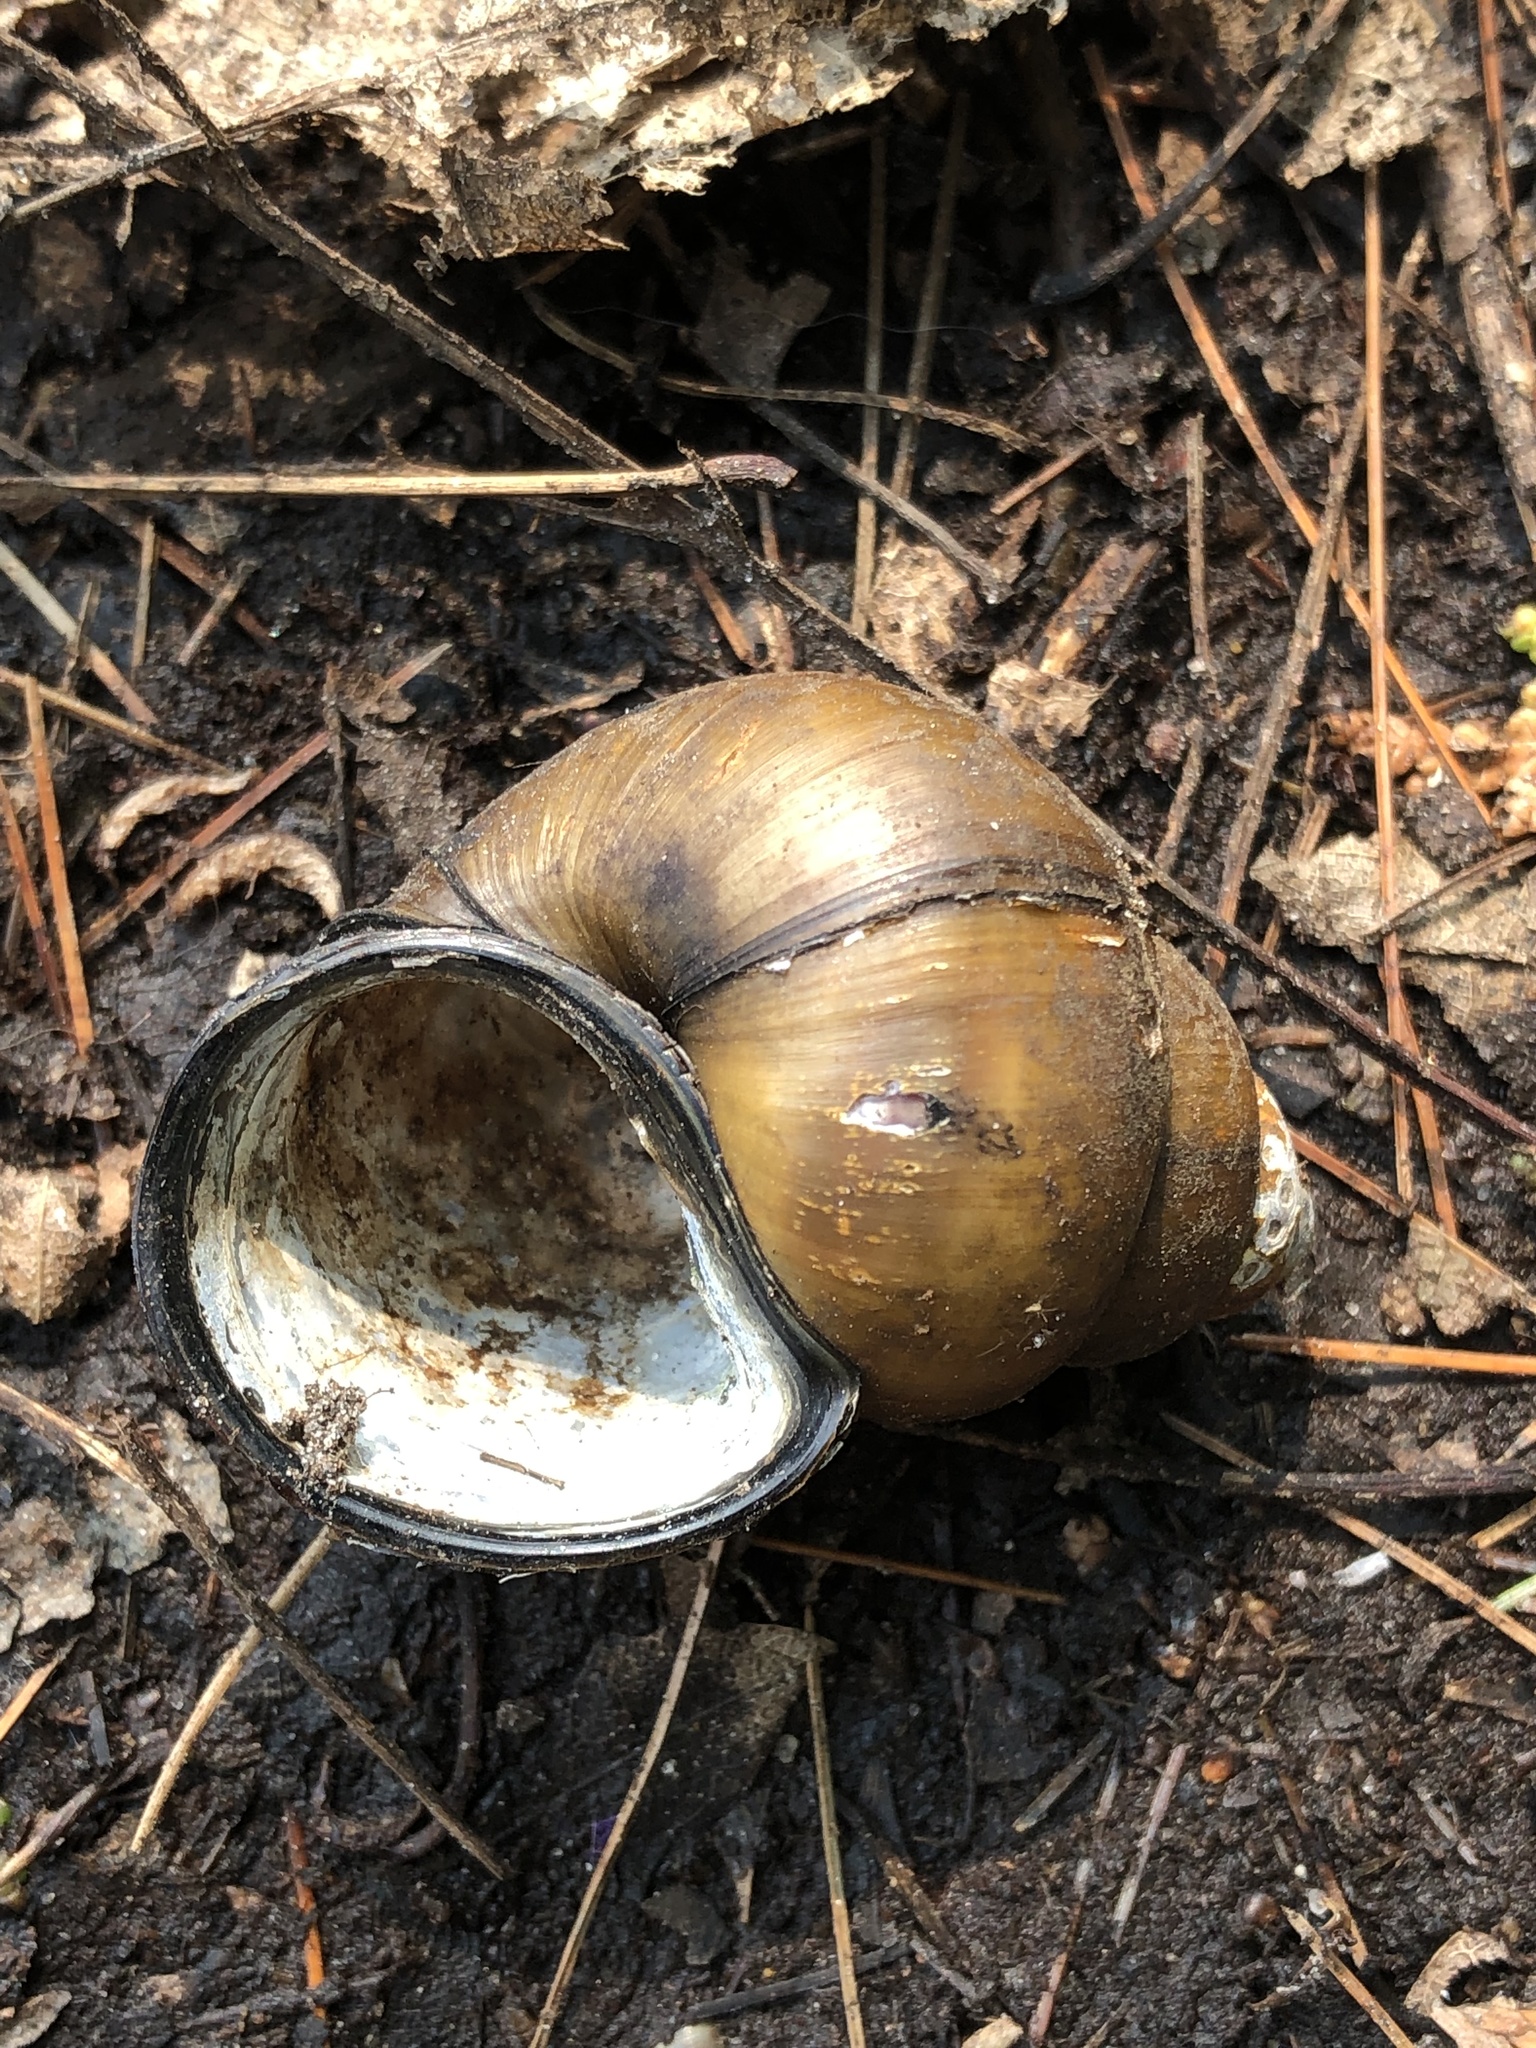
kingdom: Animalia
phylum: Mollusca
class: Gastropoda
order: Architaenioglossa
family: Viviparidae
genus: Cipangopaludina
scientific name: Cipangopaludina chinensis
